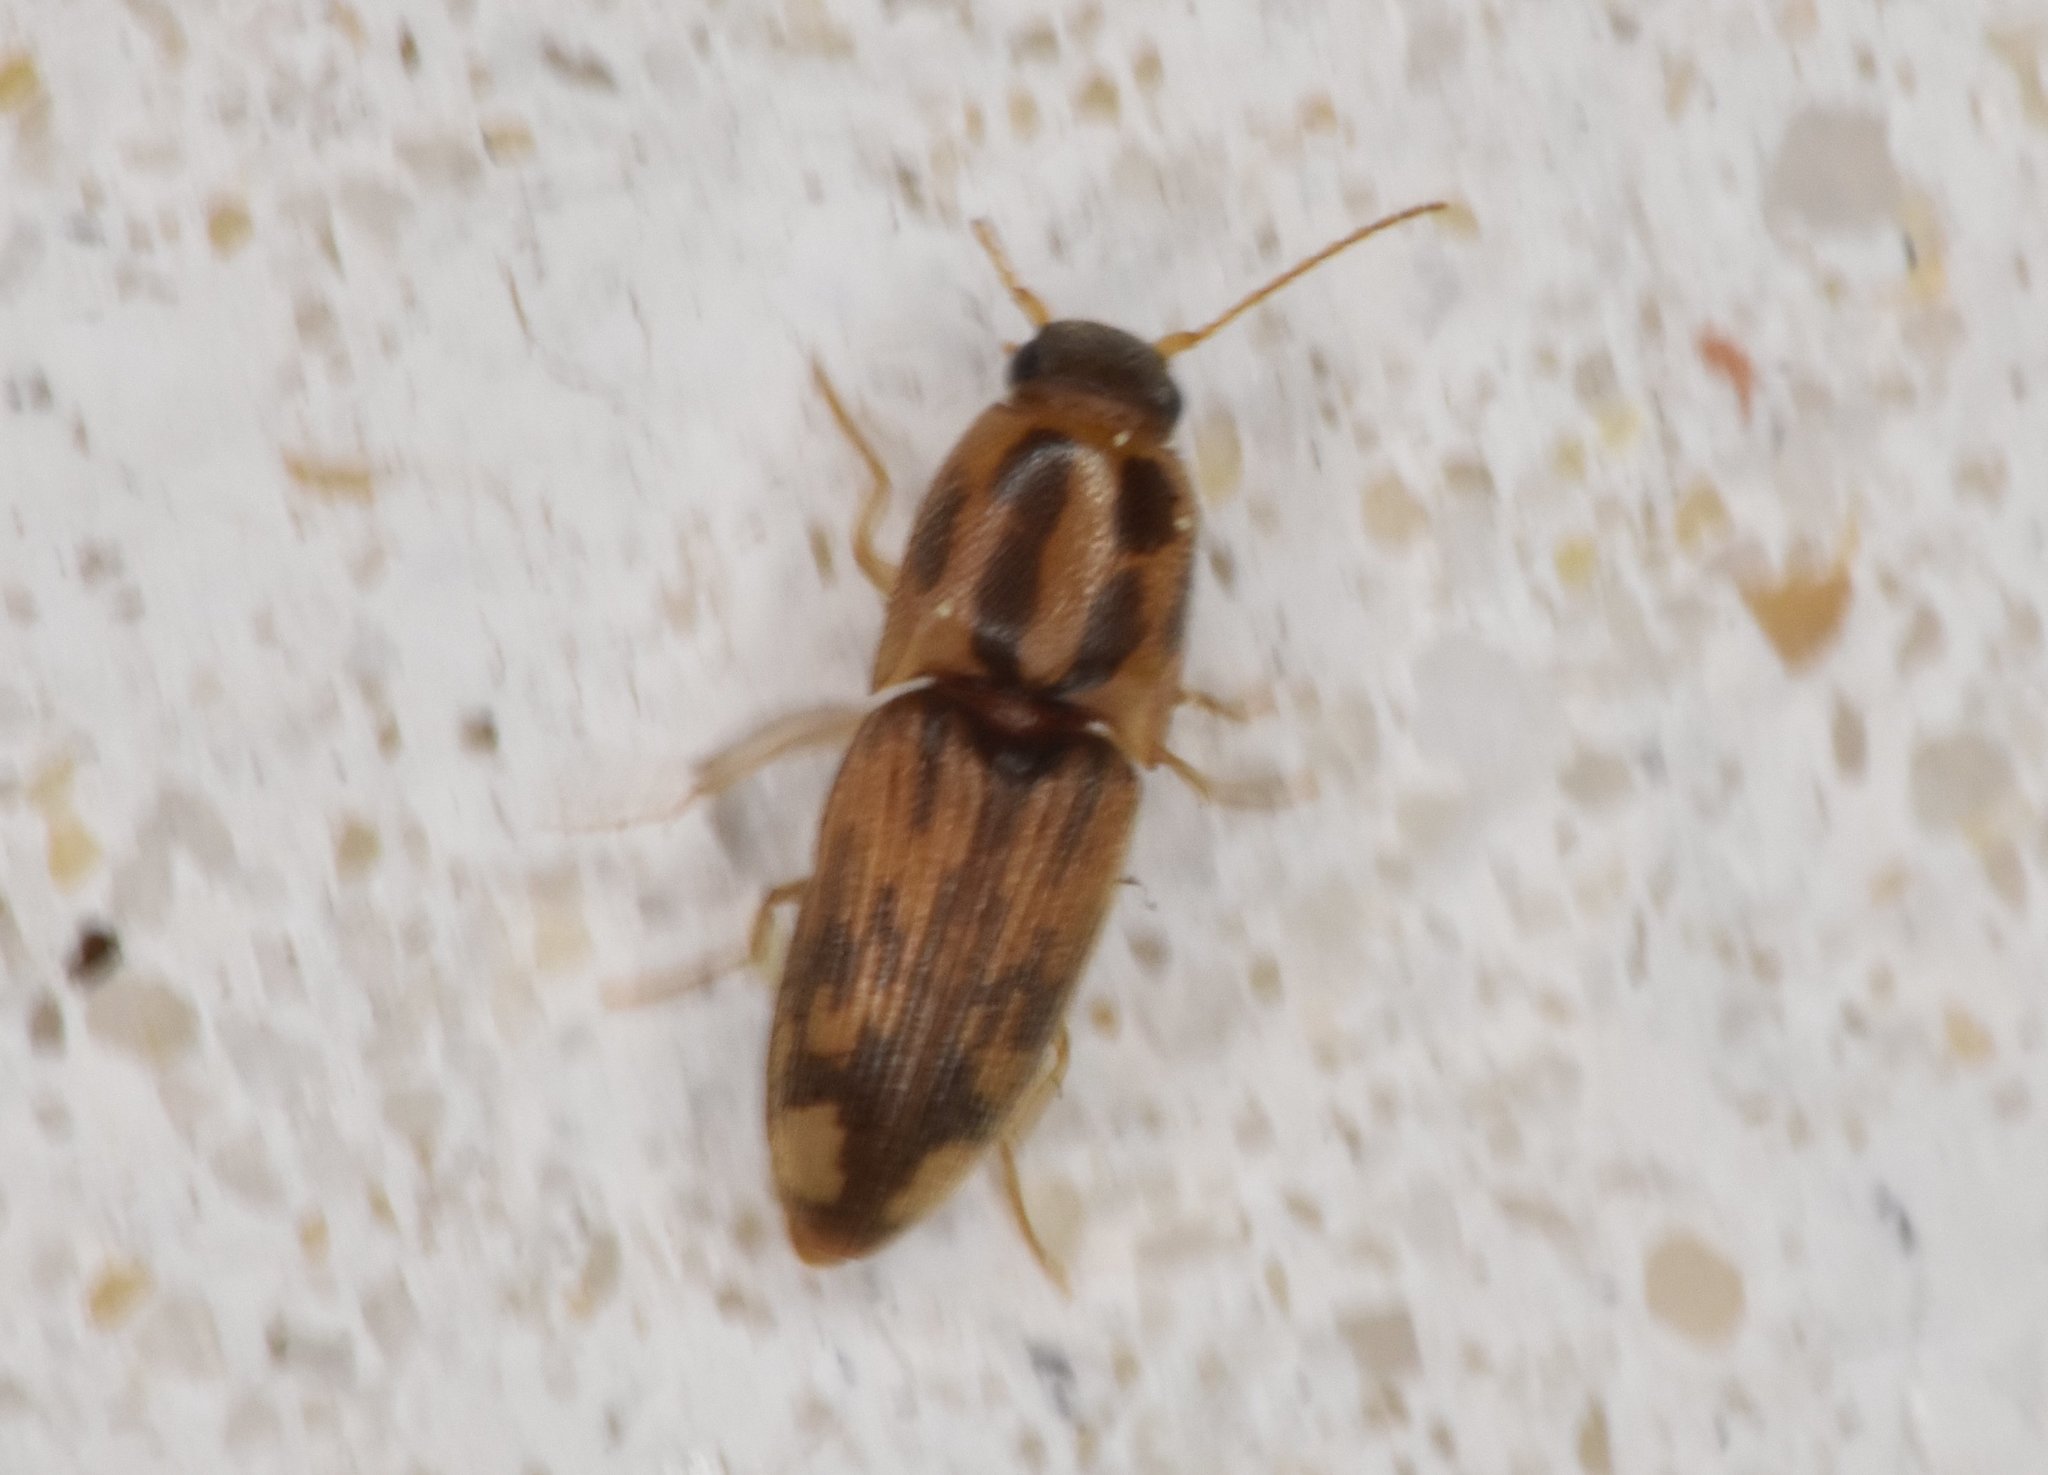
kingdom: Animalia
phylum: Arthropoda
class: Insecta
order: Coleoptera
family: Elateridae
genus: Monocrepidius
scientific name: Monocrepidius
